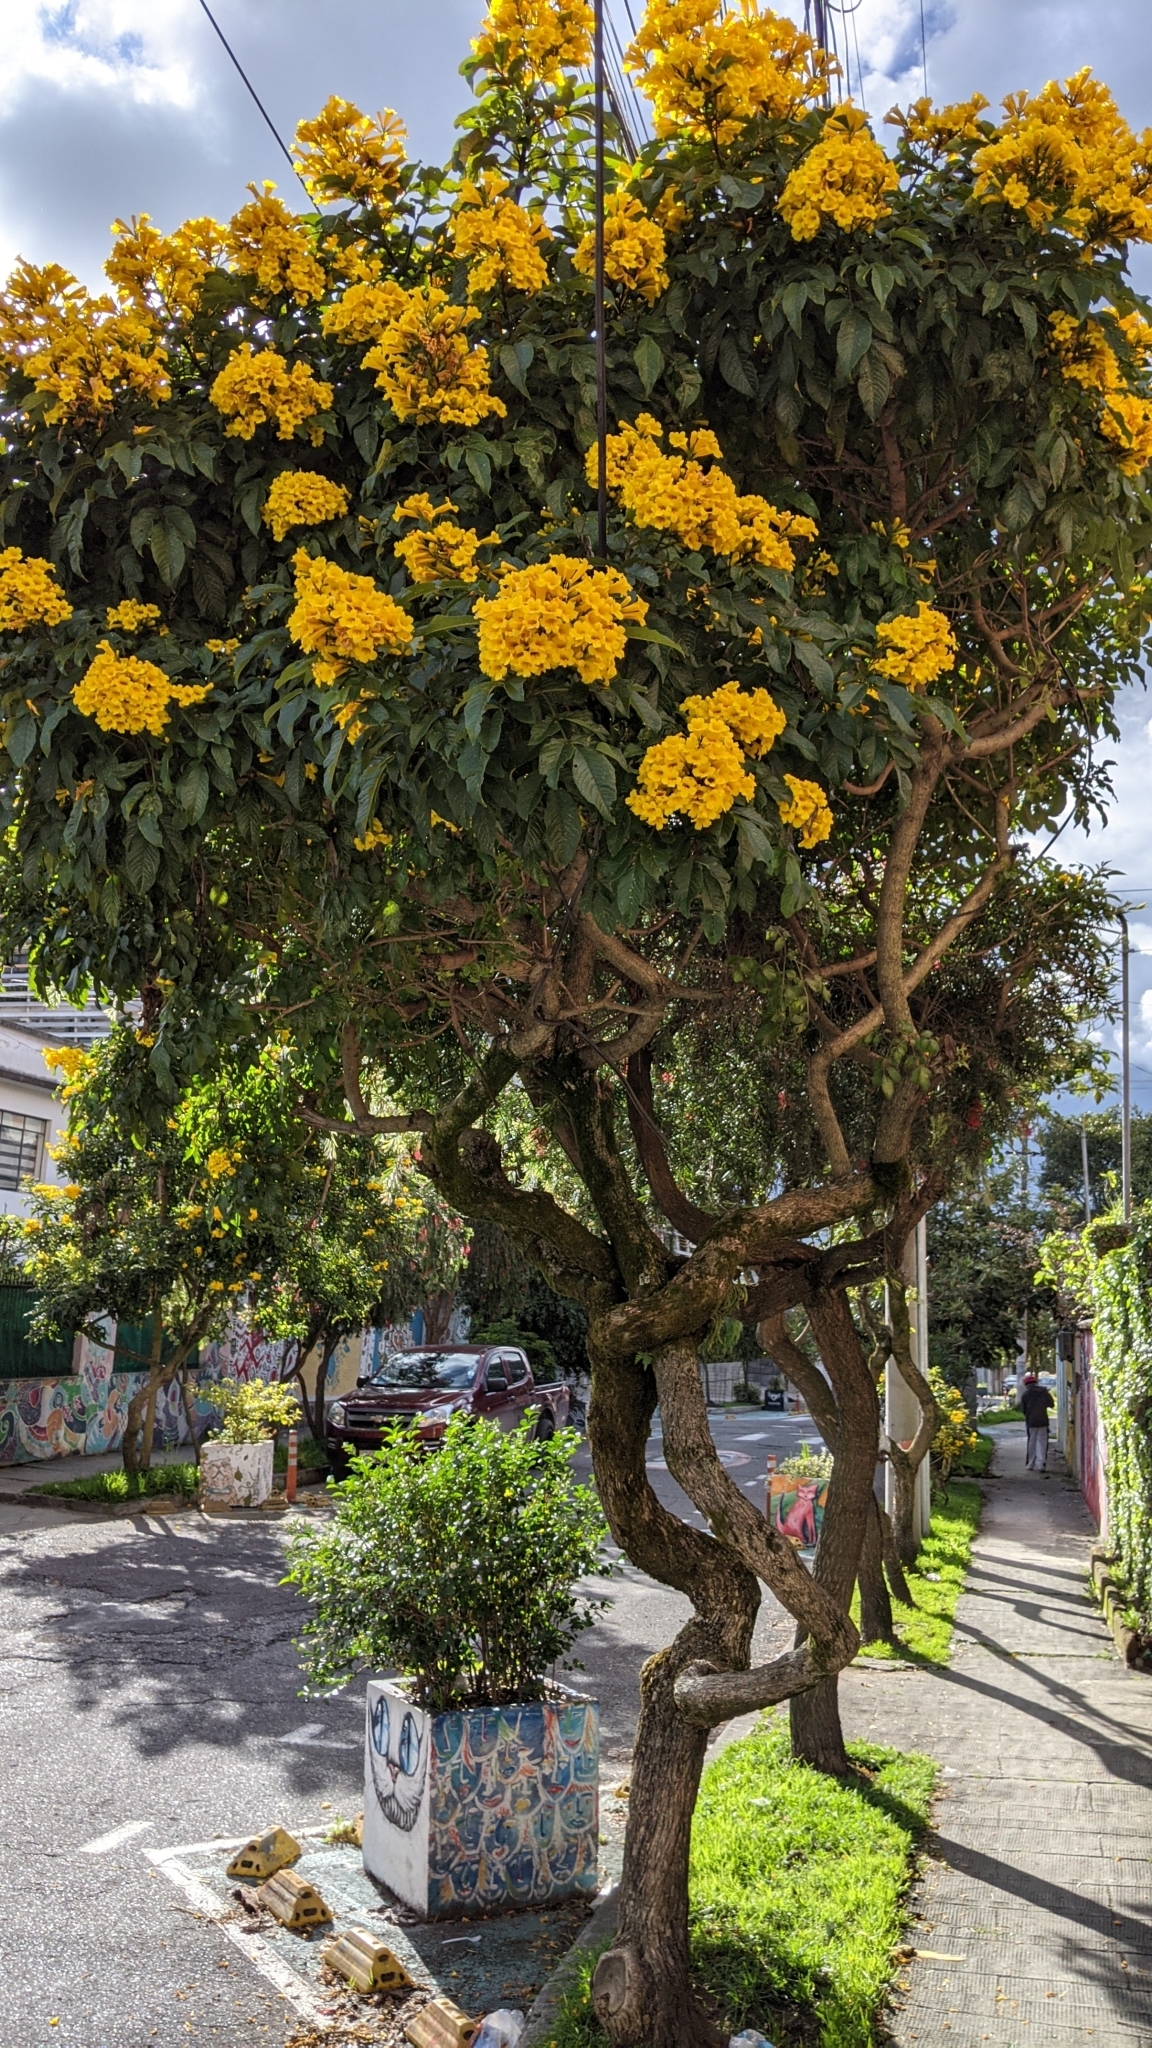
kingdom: Plantae
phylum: Tracheophyta
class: Magnoliopsida
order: Lamiales
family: Bignoniaceae
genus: Tecoma
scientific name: Tecoma stans
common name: Yellow trumpetbush
